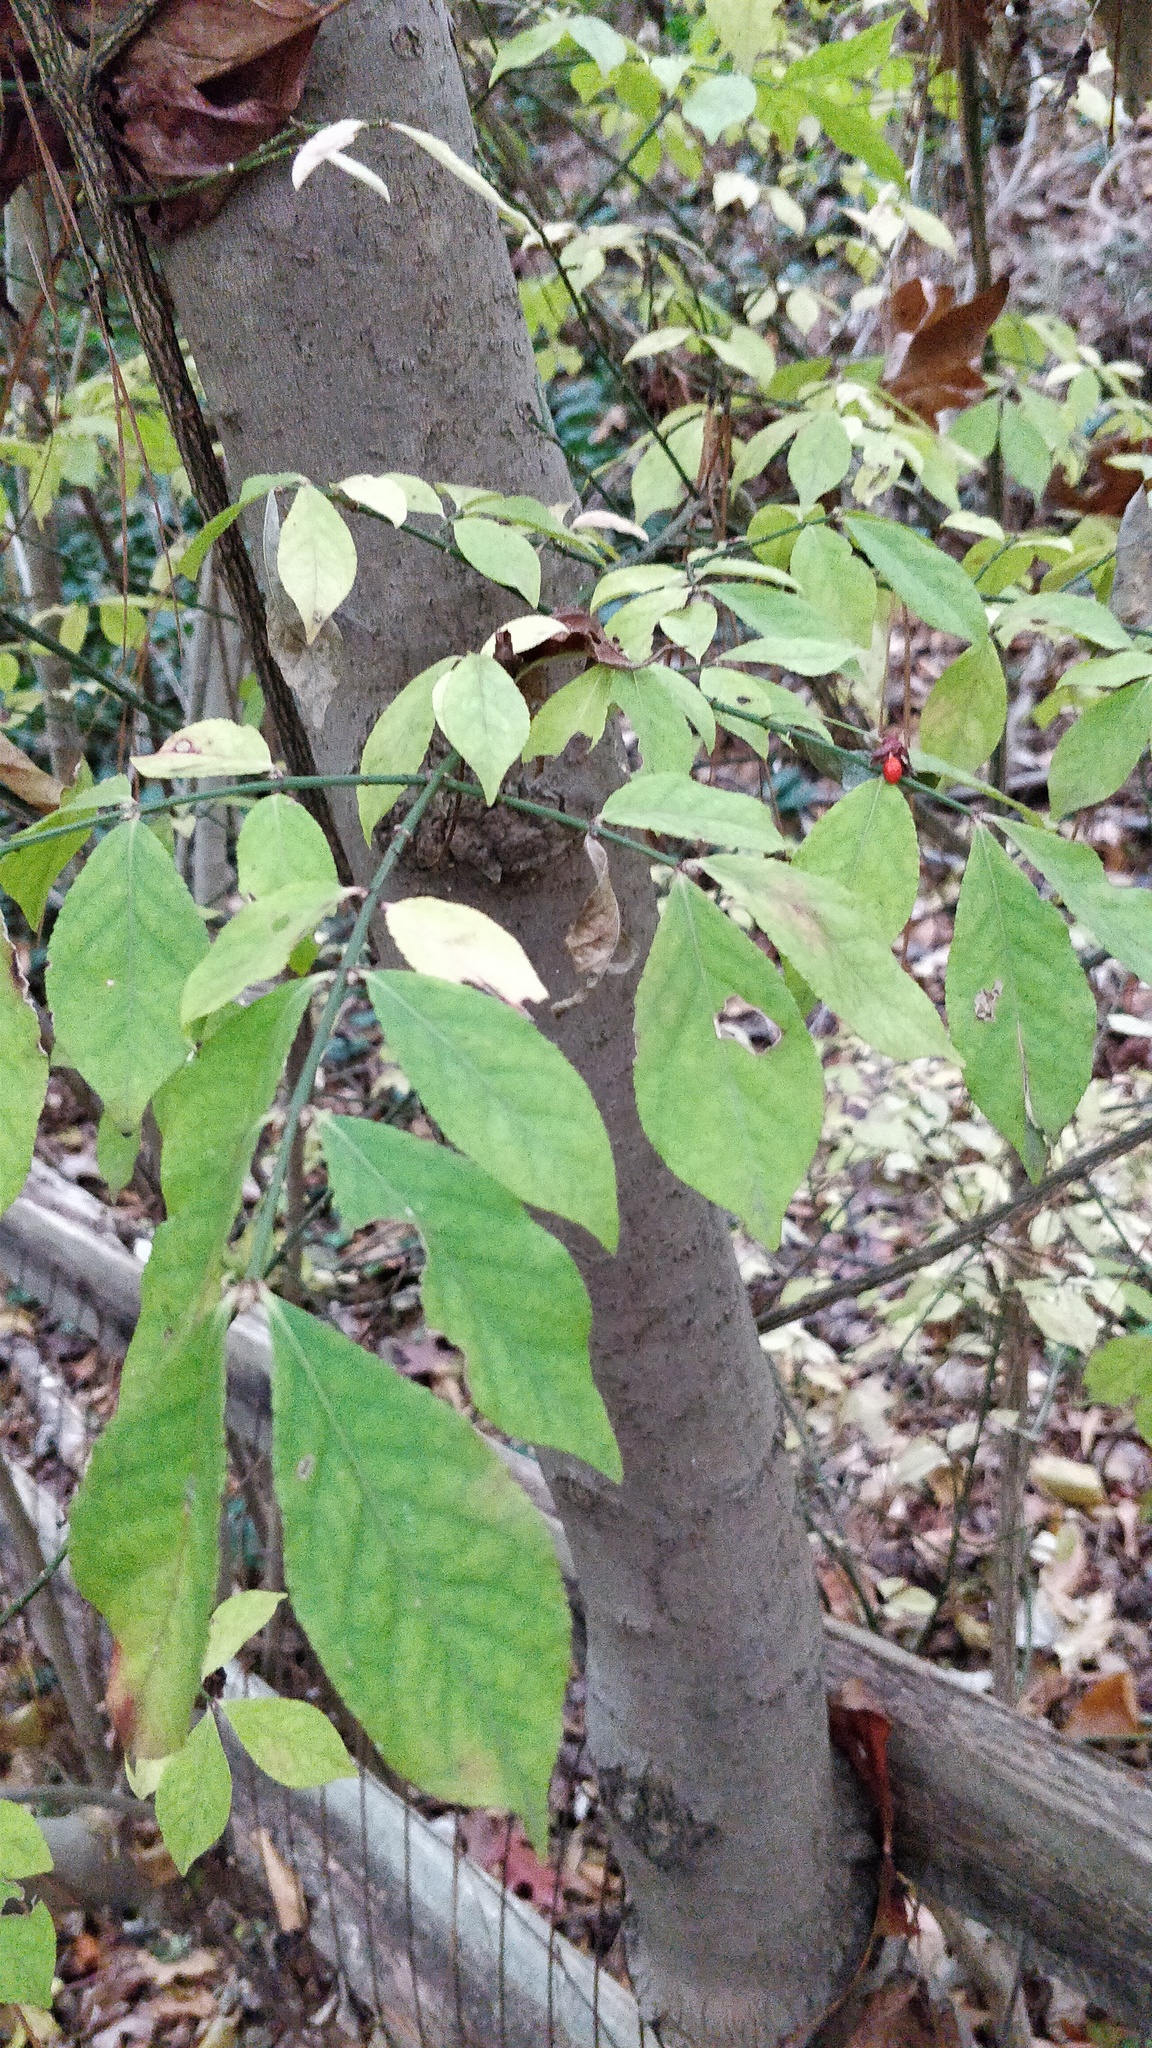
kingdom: Plantae
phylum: Tracheophyta
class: Magnoliopsida
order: Celastrales
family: Celastraceae
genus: Euonymus
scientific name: Euonymus alatus
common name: Winged euonymus
